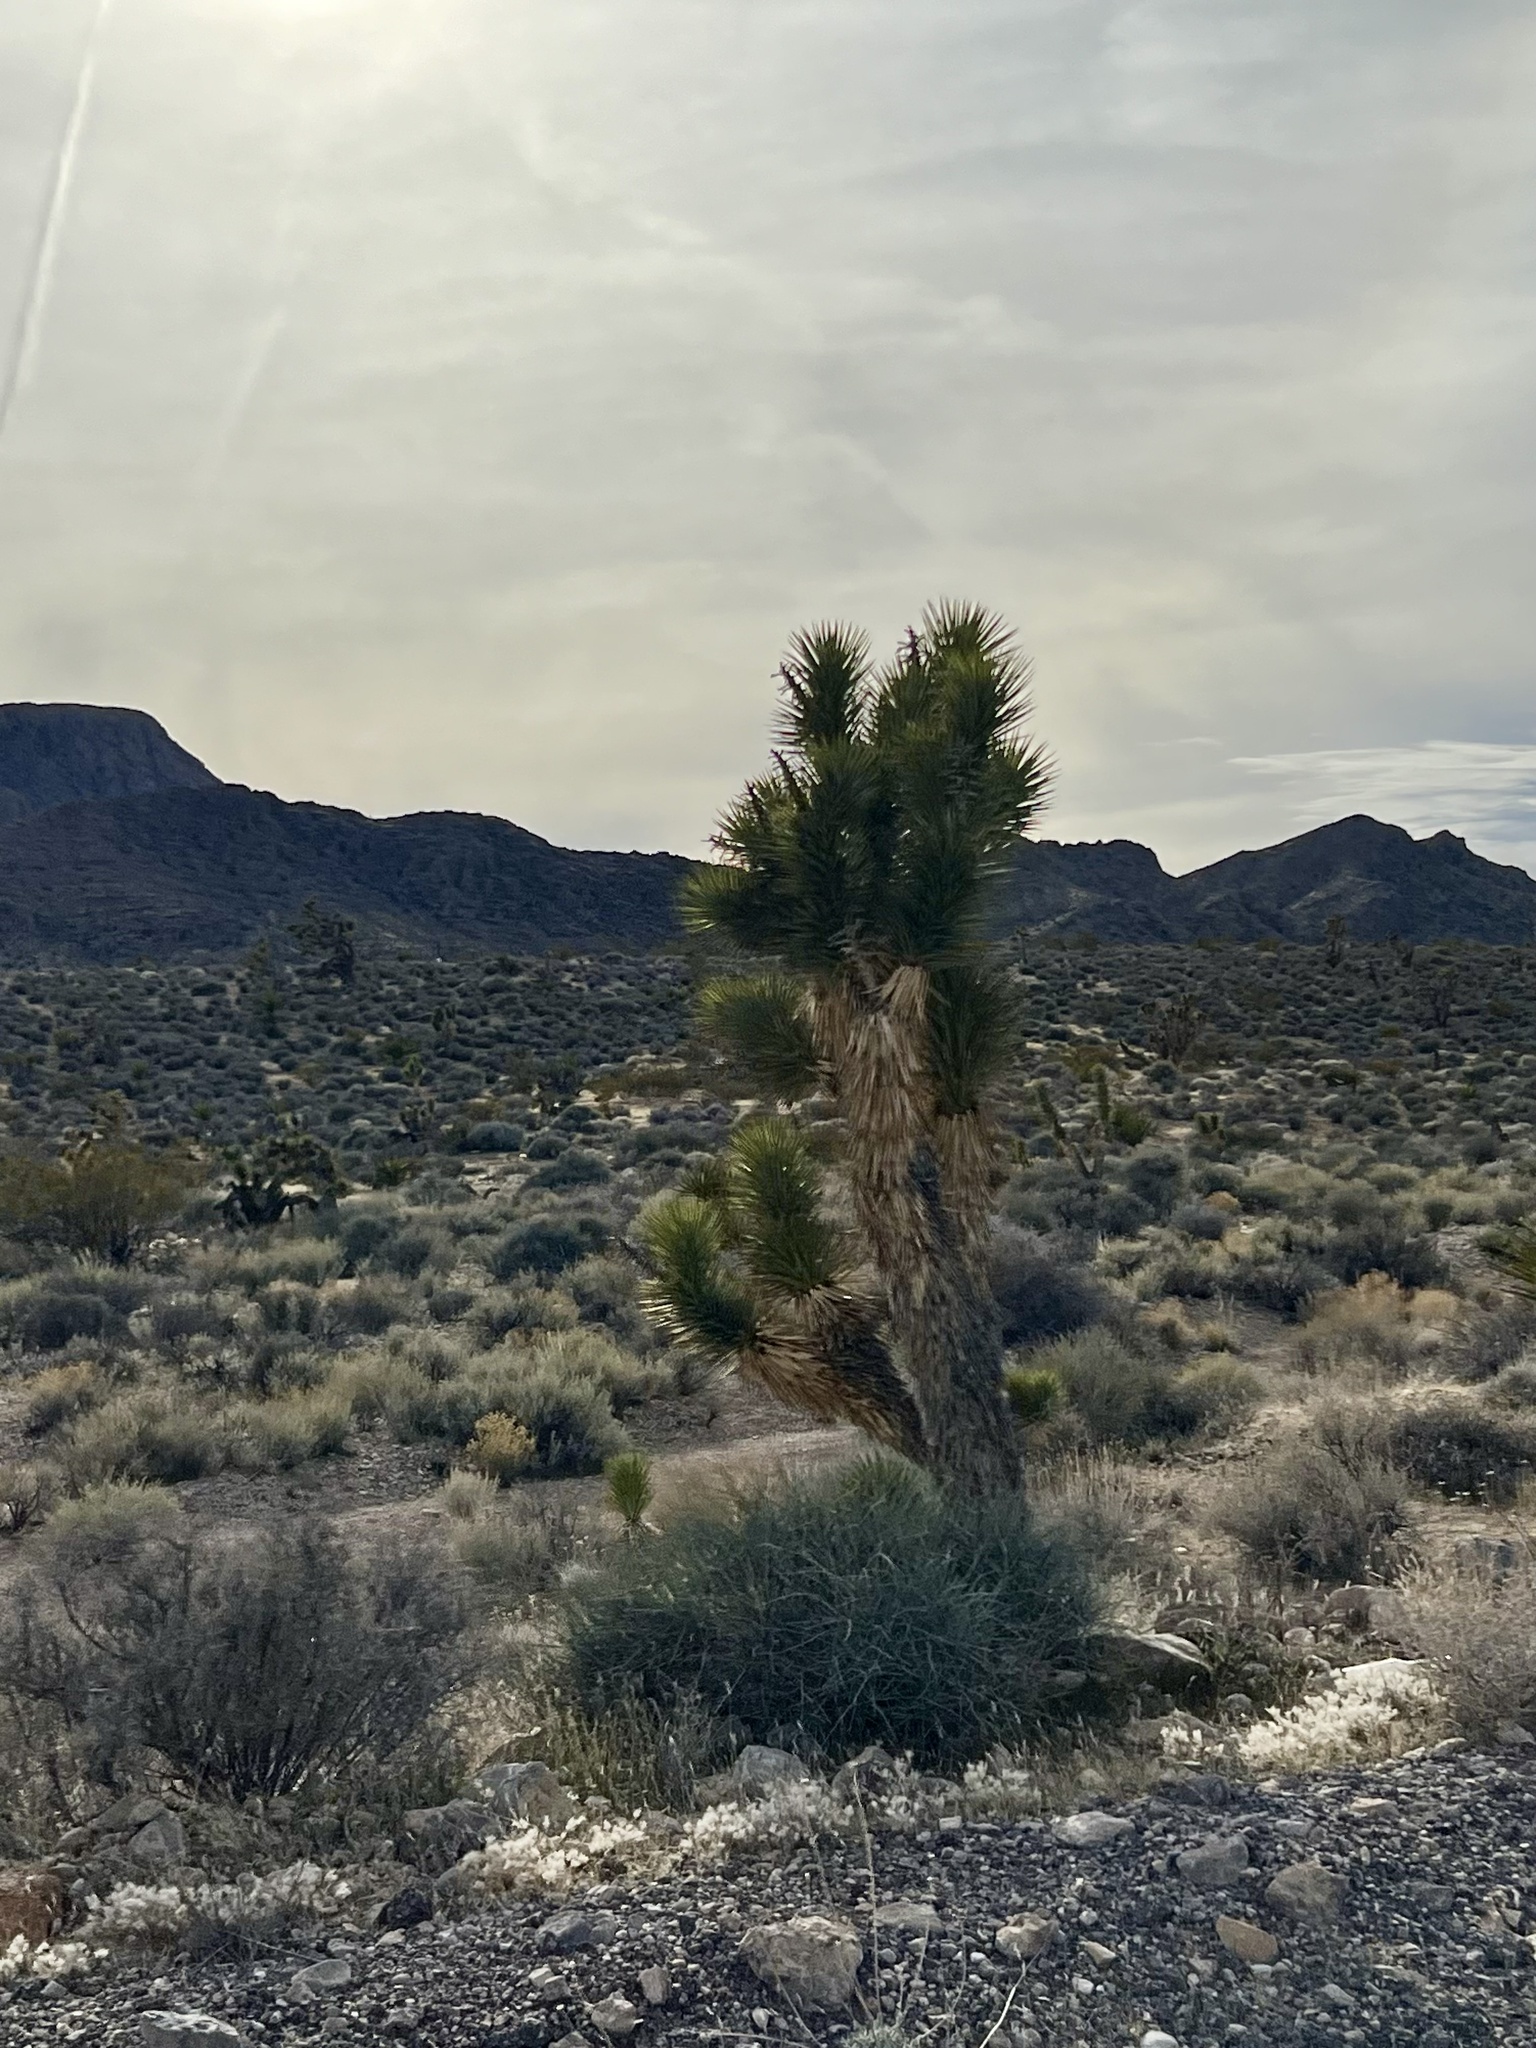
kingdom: Plantae
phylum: Tracheophyta
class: Liliopsida
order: Asparagales
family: Asparagaceae
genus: Yucca
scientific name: Yucca brevifolia
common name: Joshua tree
